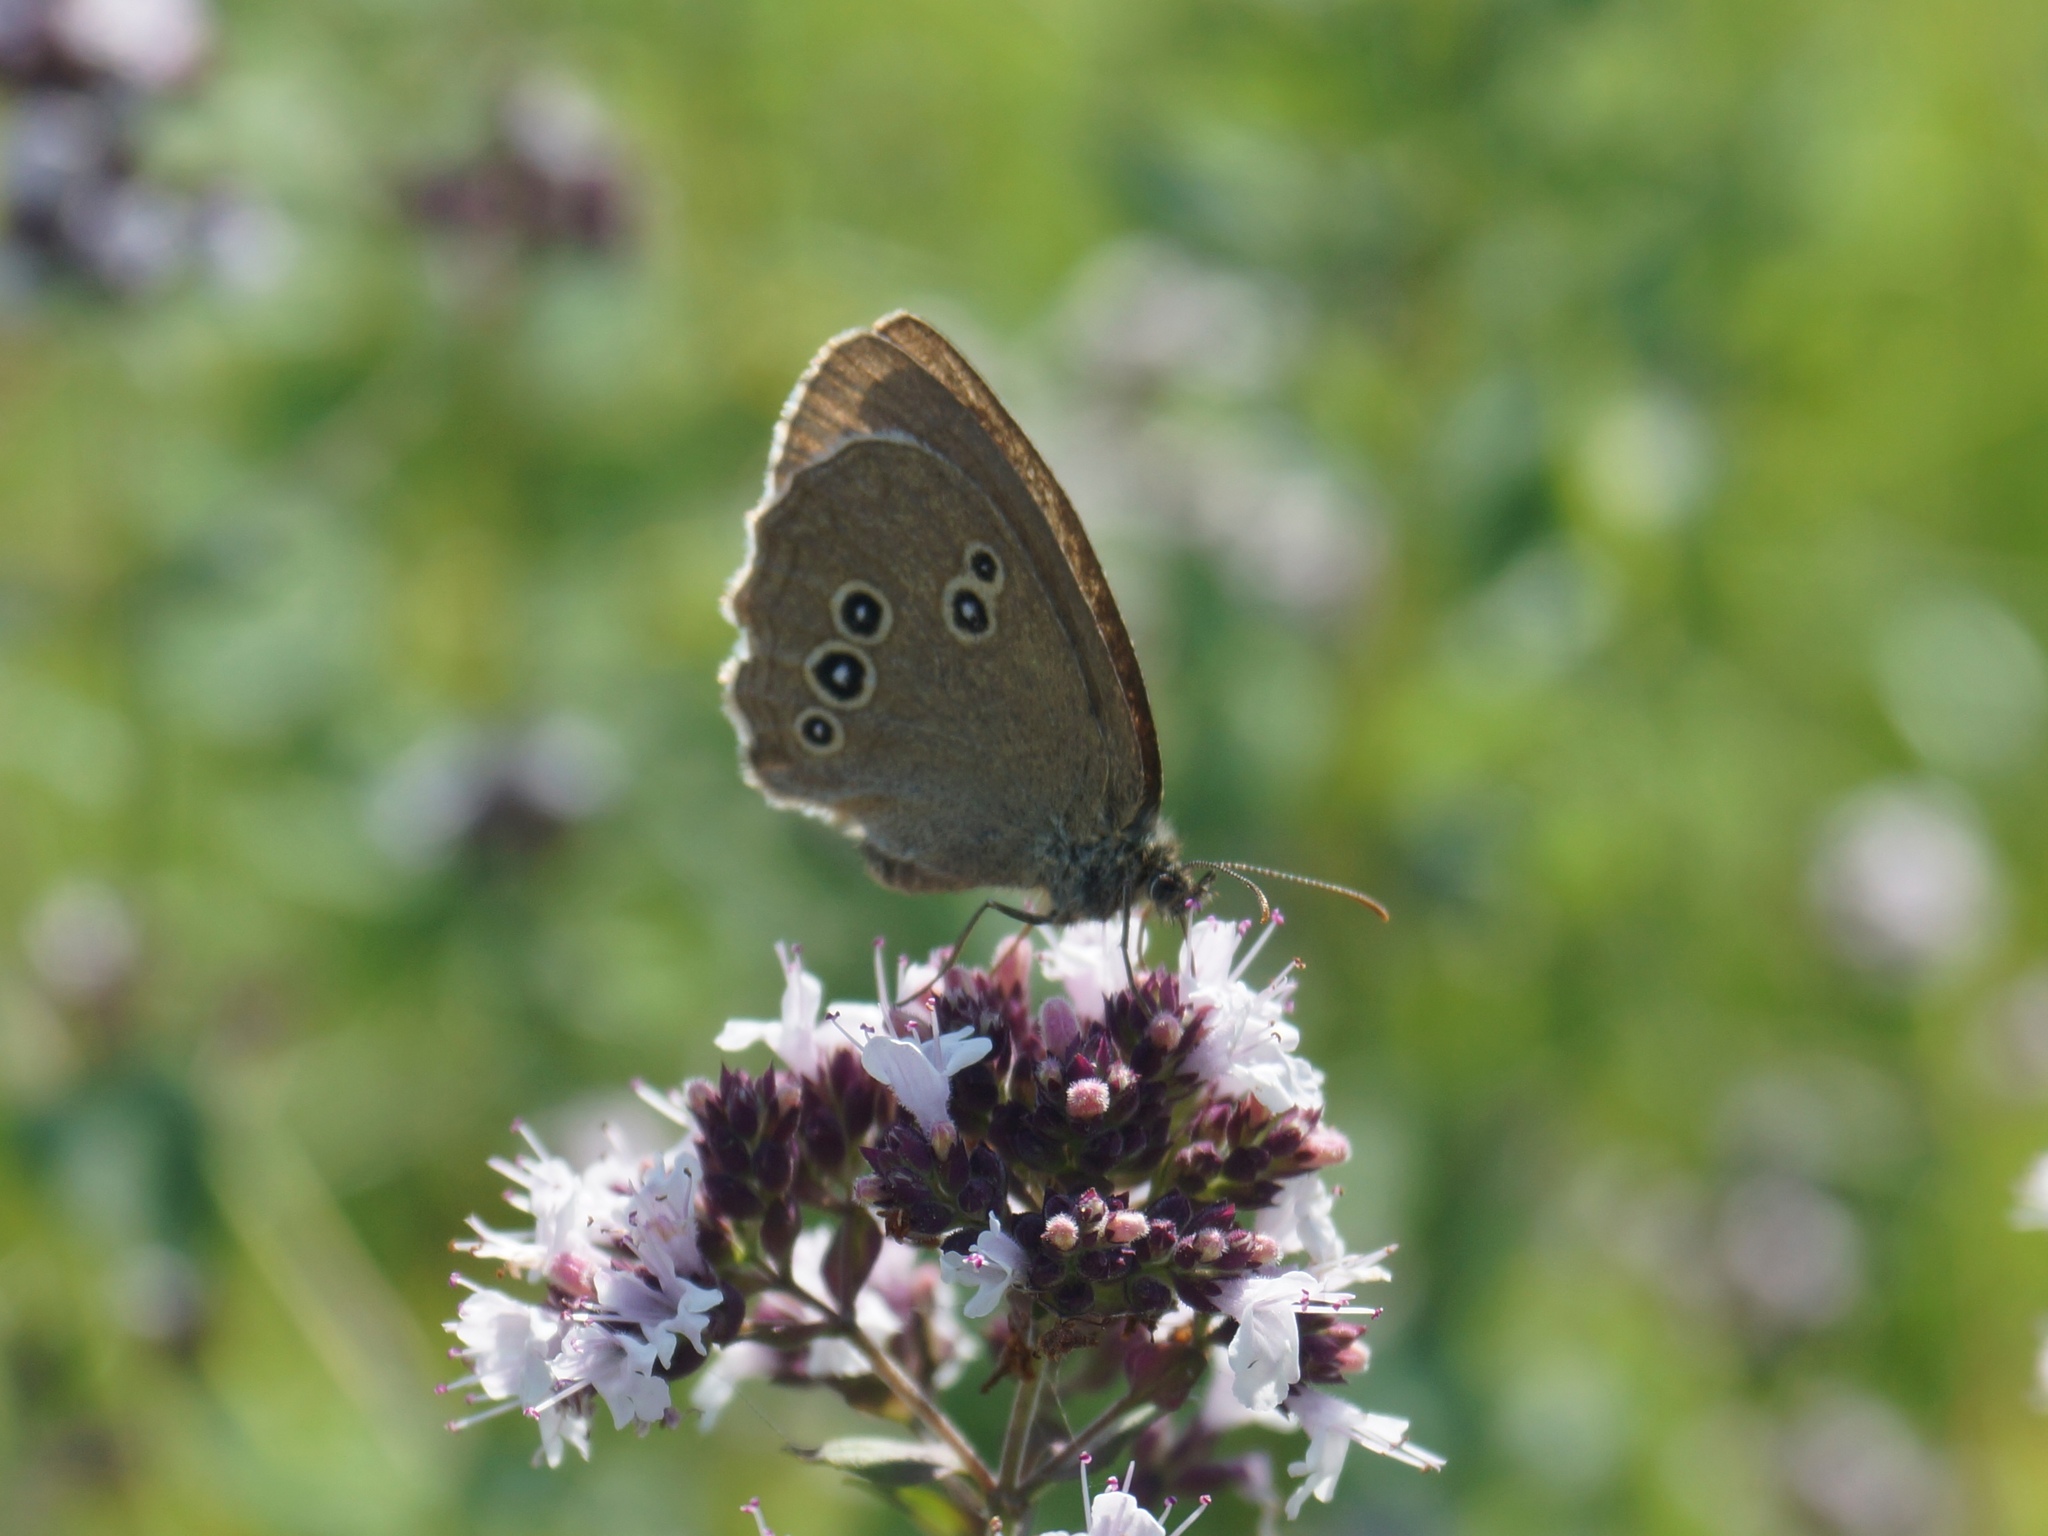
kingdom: Animalia
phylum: Arthropoda
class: Insecta
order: Lepidoptera
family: Nymphalidae
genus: Aphantopus
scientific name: Aphantopus hyperantus
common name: Ringlet
